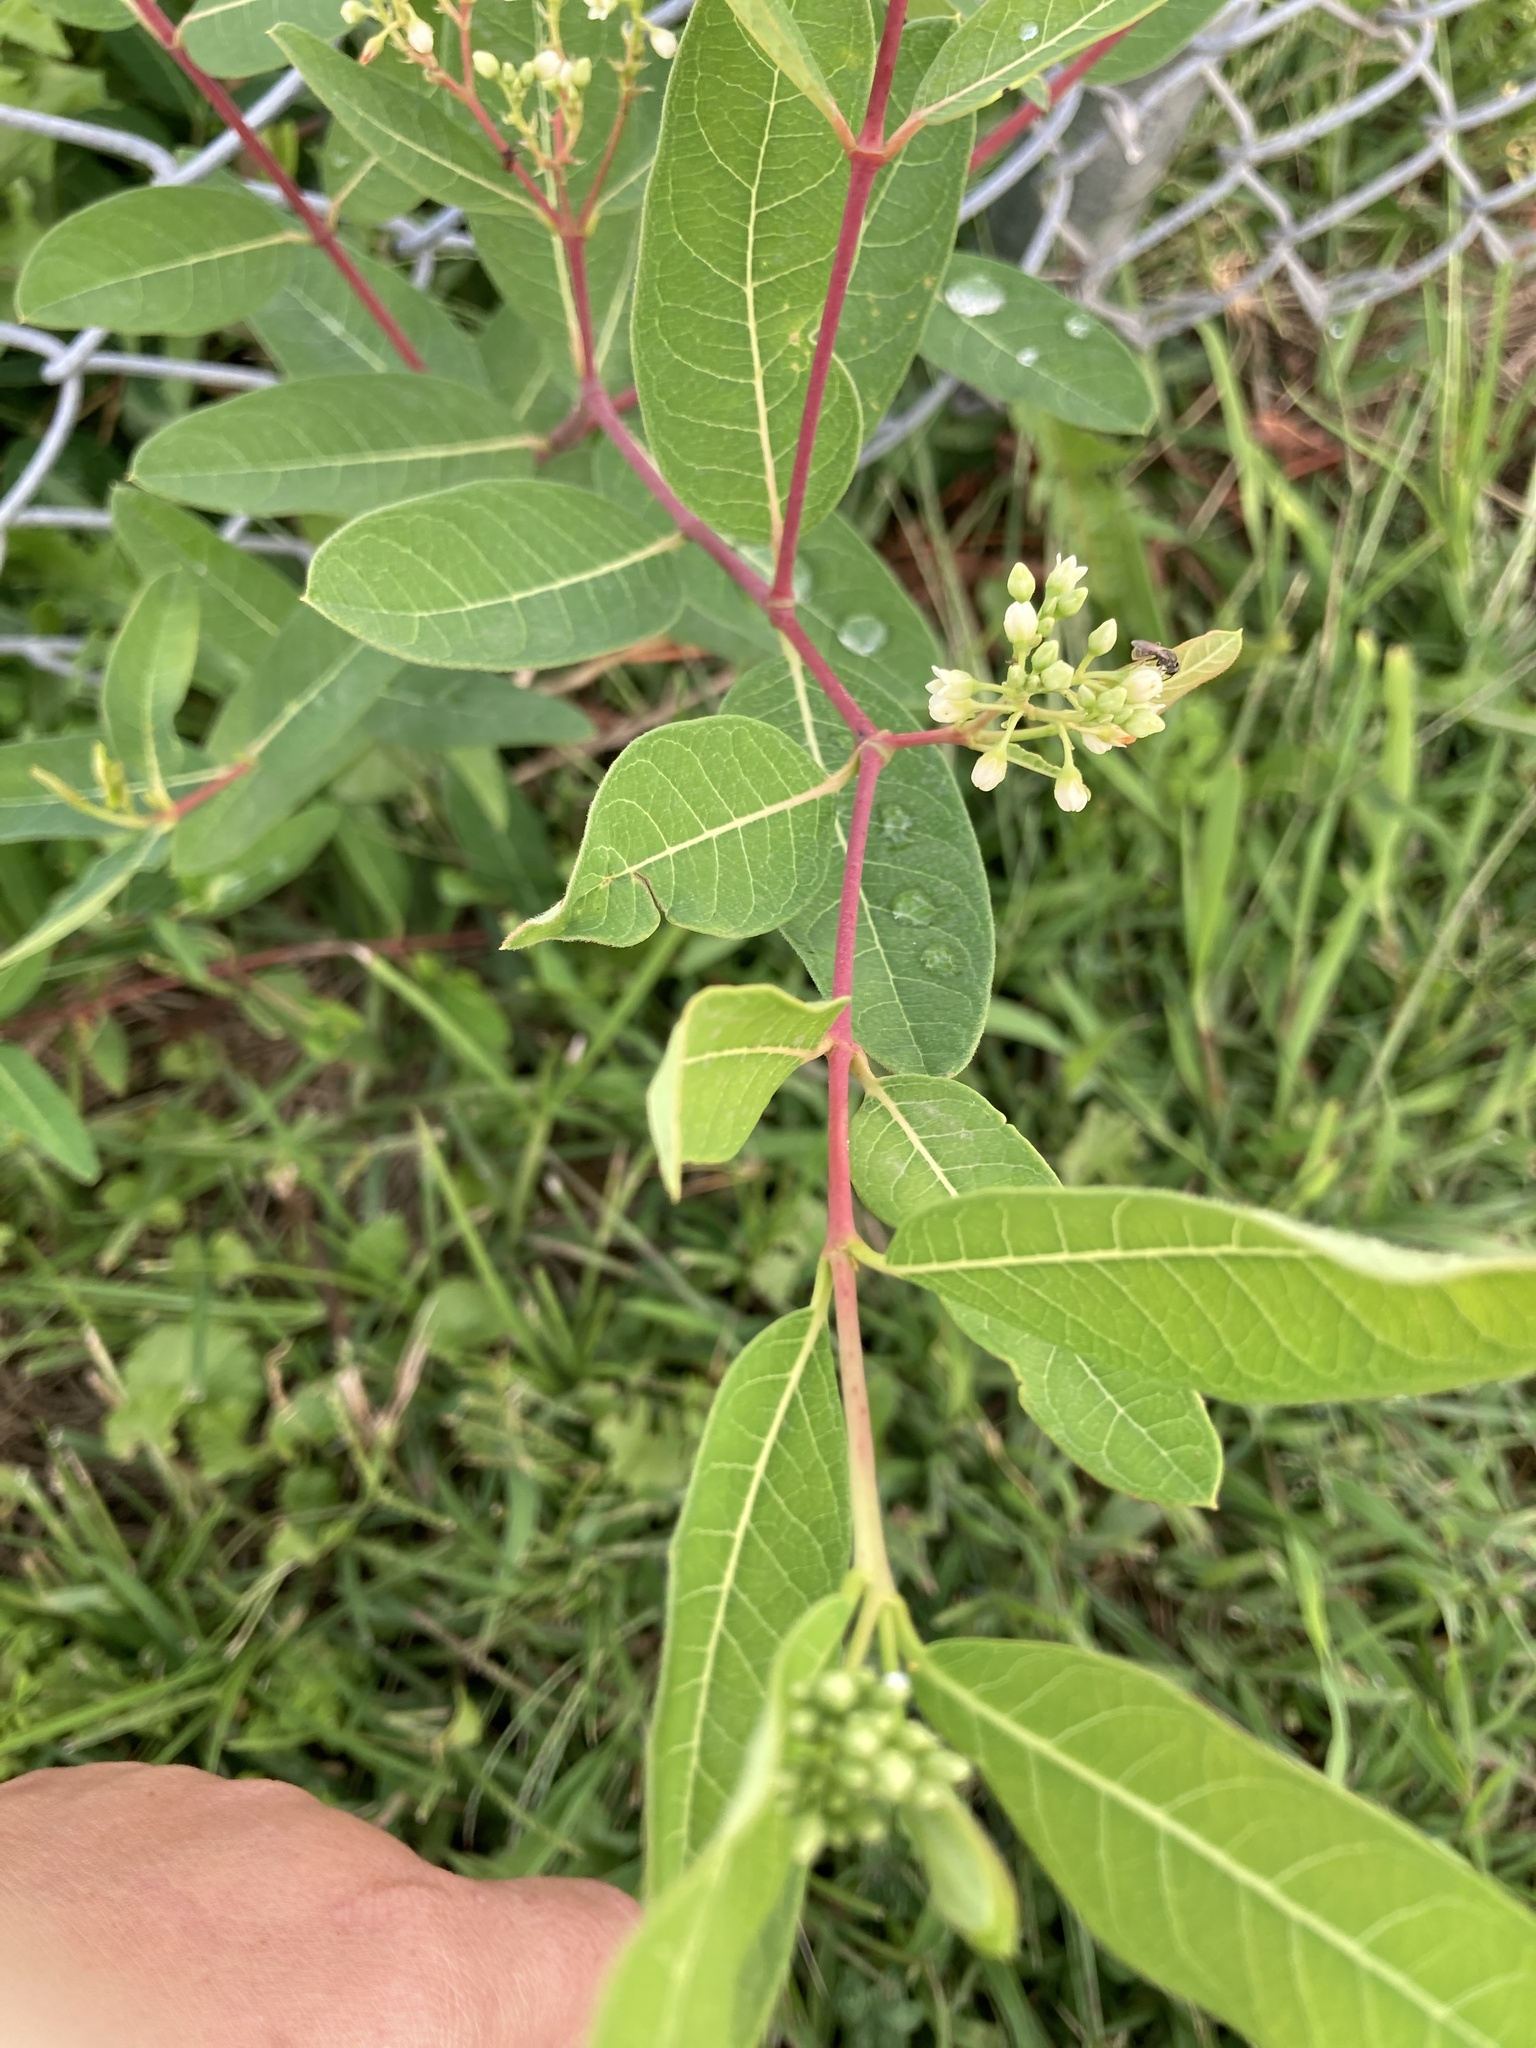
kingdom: Plantae
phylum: Tracheophyta
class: Magnoliopsida
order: Gentianales
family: Apocynaceae
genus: Apocynum
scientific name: Apocynum cannabinum
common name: Hemp dogbane
